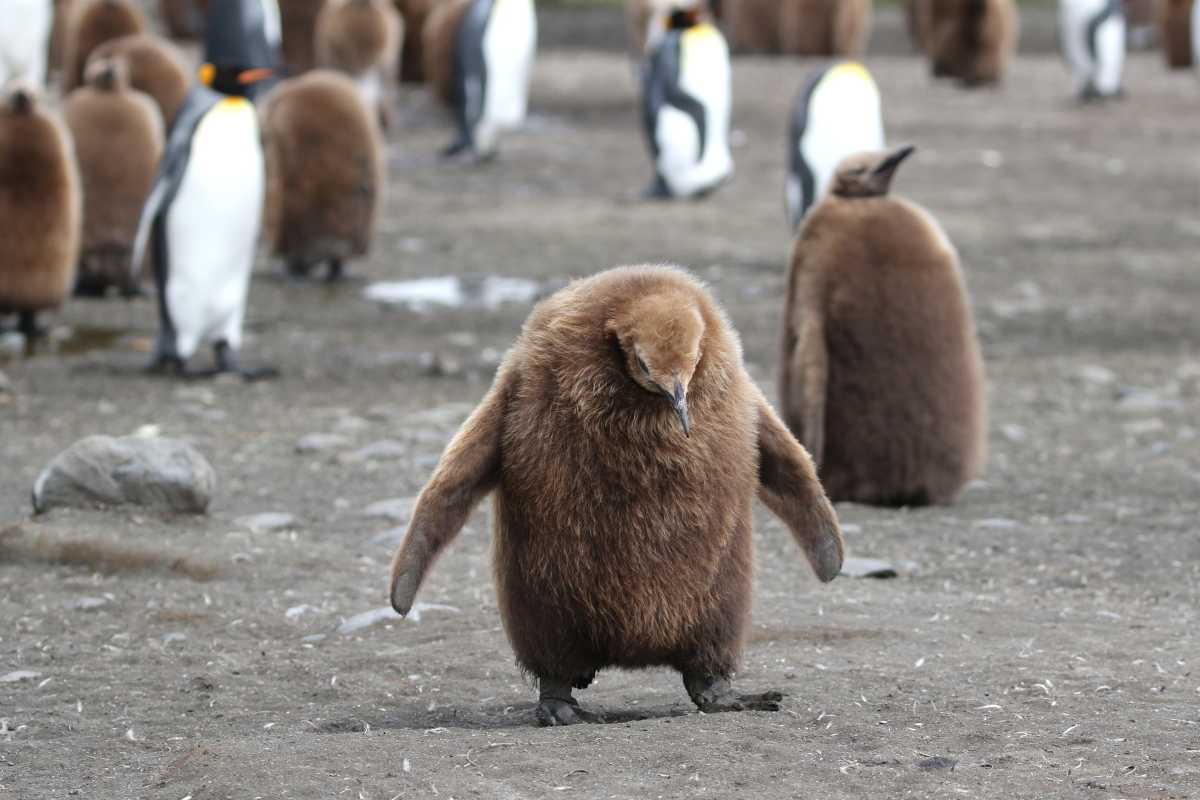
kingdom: Animalia
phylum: Chordata
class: Aves
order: Sphenisciformes
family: Spheniscidae
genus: Aptenodytes
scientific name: Aptenodytes patagonicus
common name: King penguin
